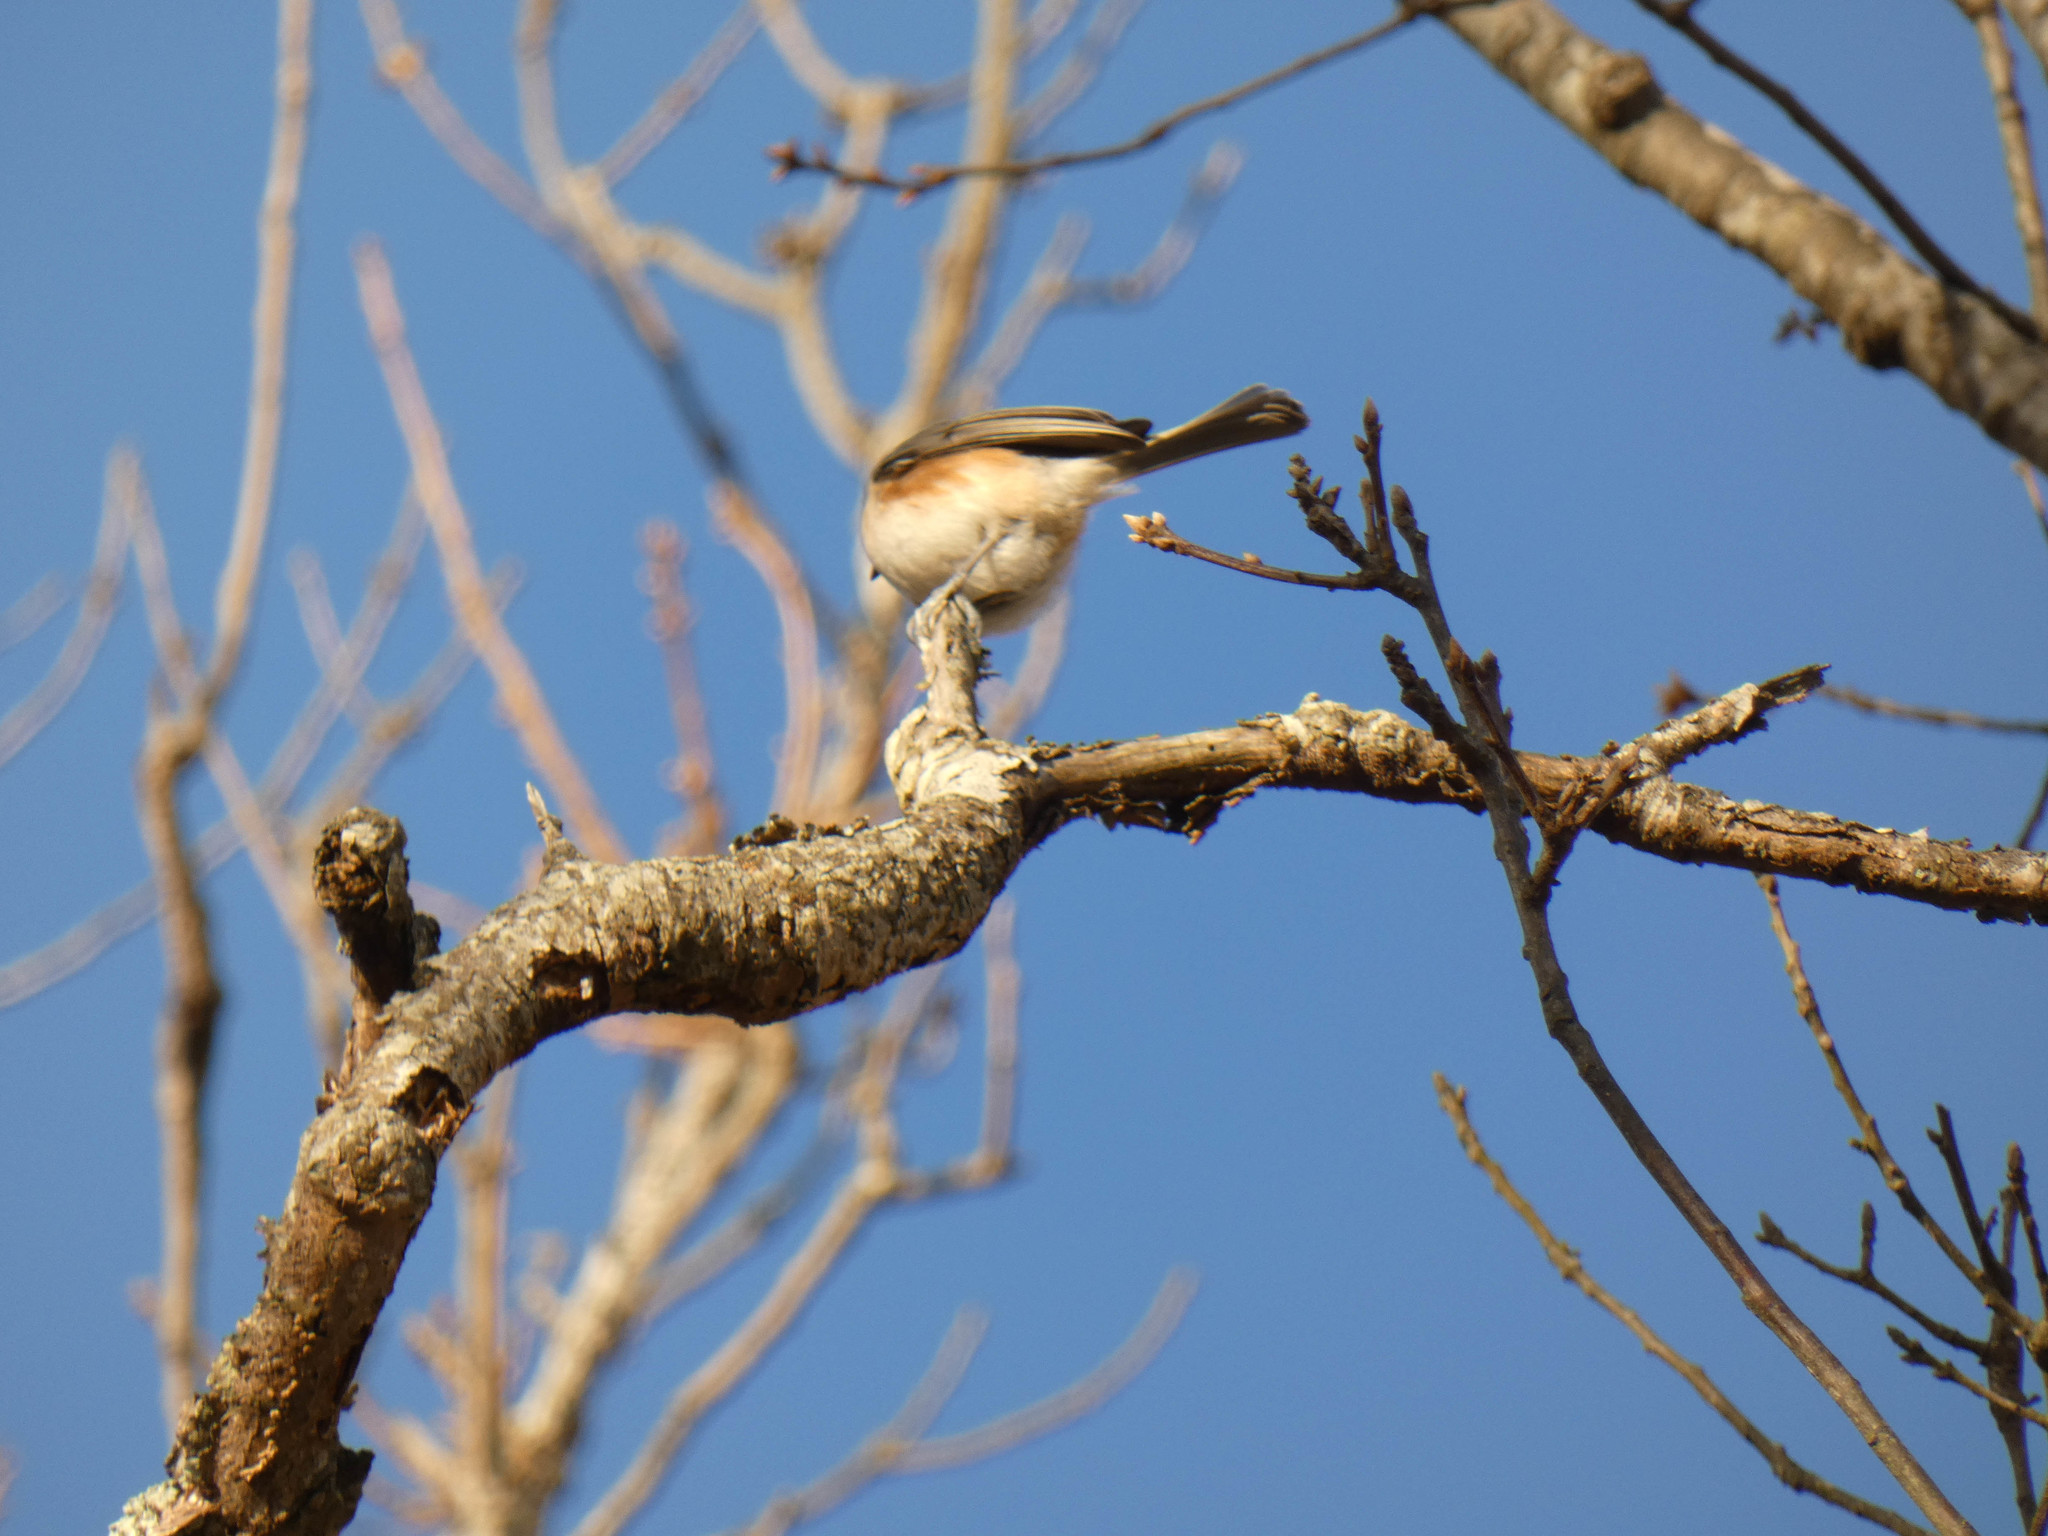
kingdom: Animalia
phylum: Chordata
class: Aves
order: Passeriformes
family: Paridae
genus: Baeolophus
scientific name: Baeolophus bicolor
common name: Tufted titmouse
